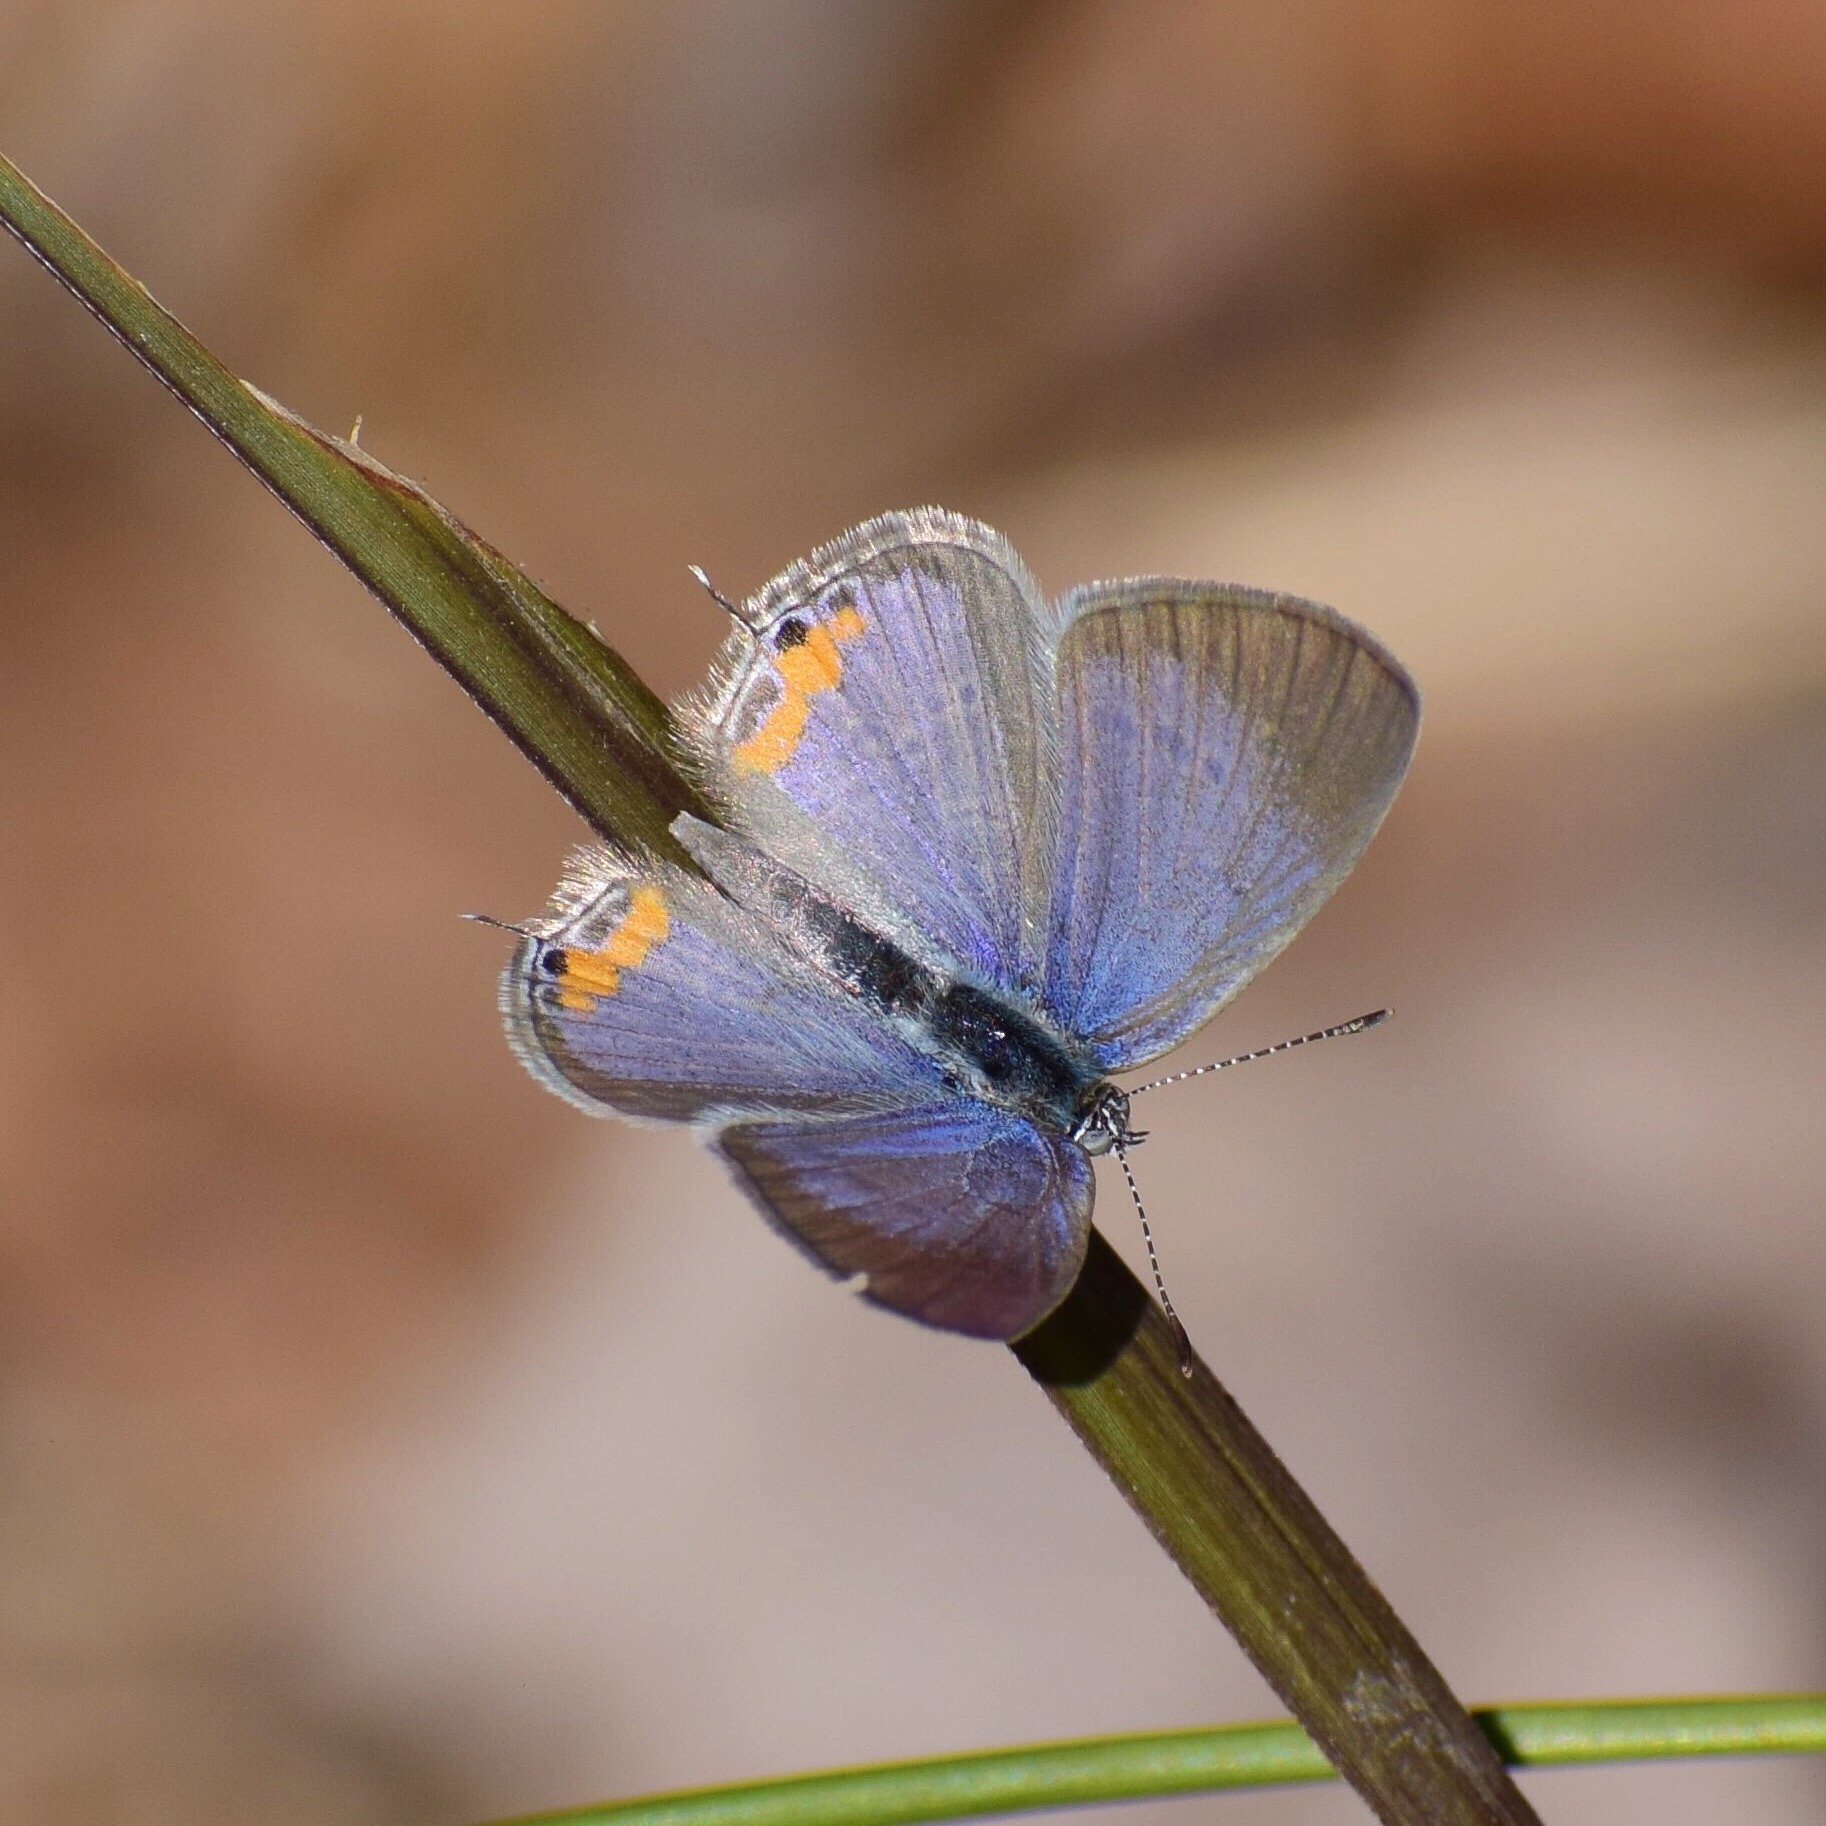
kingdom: Animalia
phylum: Arthropoda
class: Insecta
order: Lepidoptera
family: Lycaenidae
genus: Cupidopsis
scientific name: Cupidopsis jobates
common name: Tailed meadow blue
